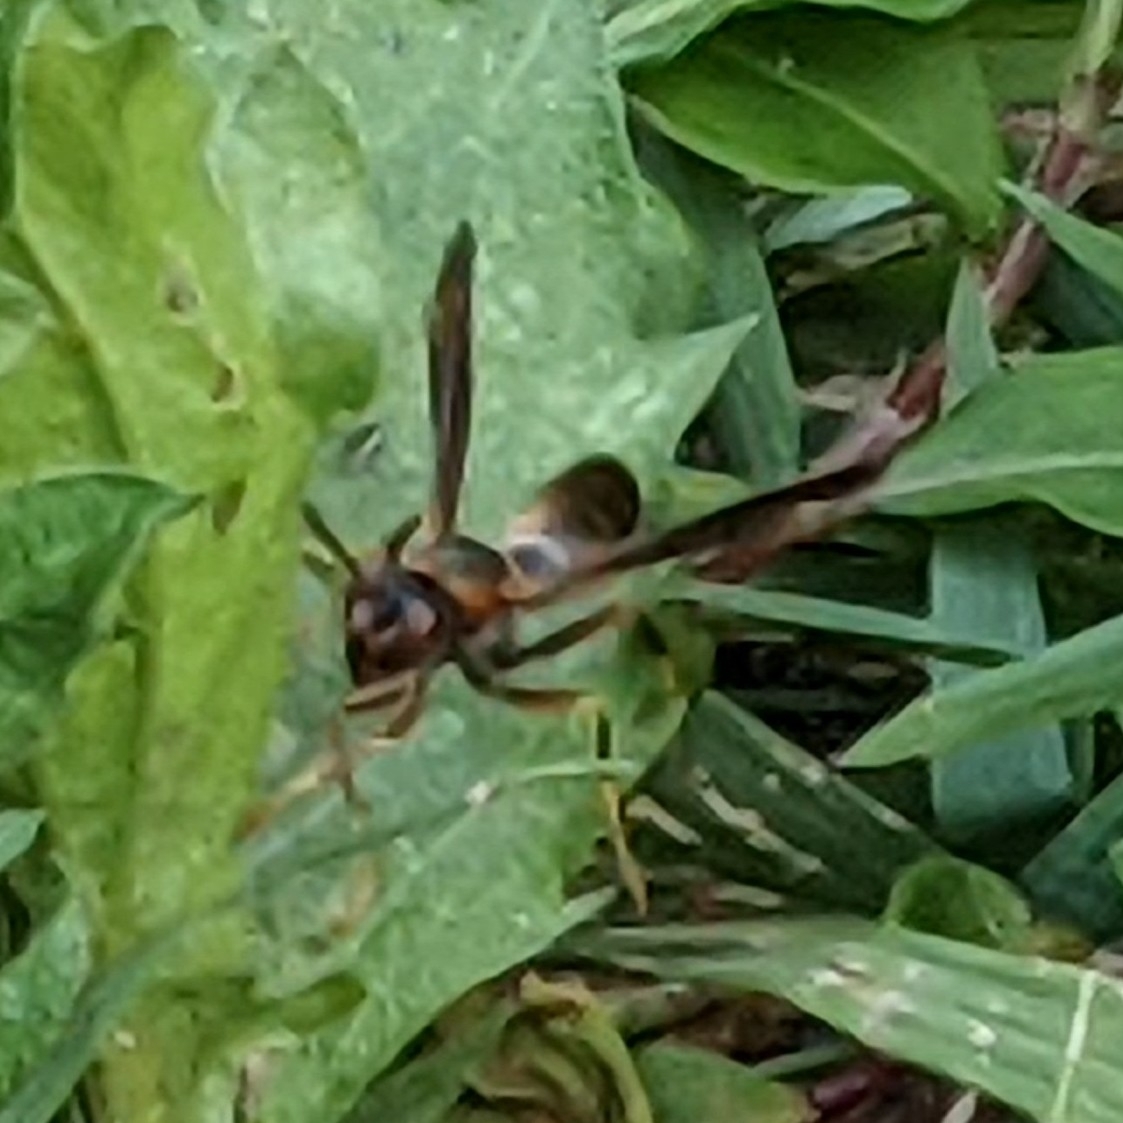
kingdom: Animalia
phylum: Arthropoda
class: Insecta
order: Hymenoptera
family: Eumenidae
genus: Polistes
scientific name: Polistes fuscatus
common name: Dark paper wasp
